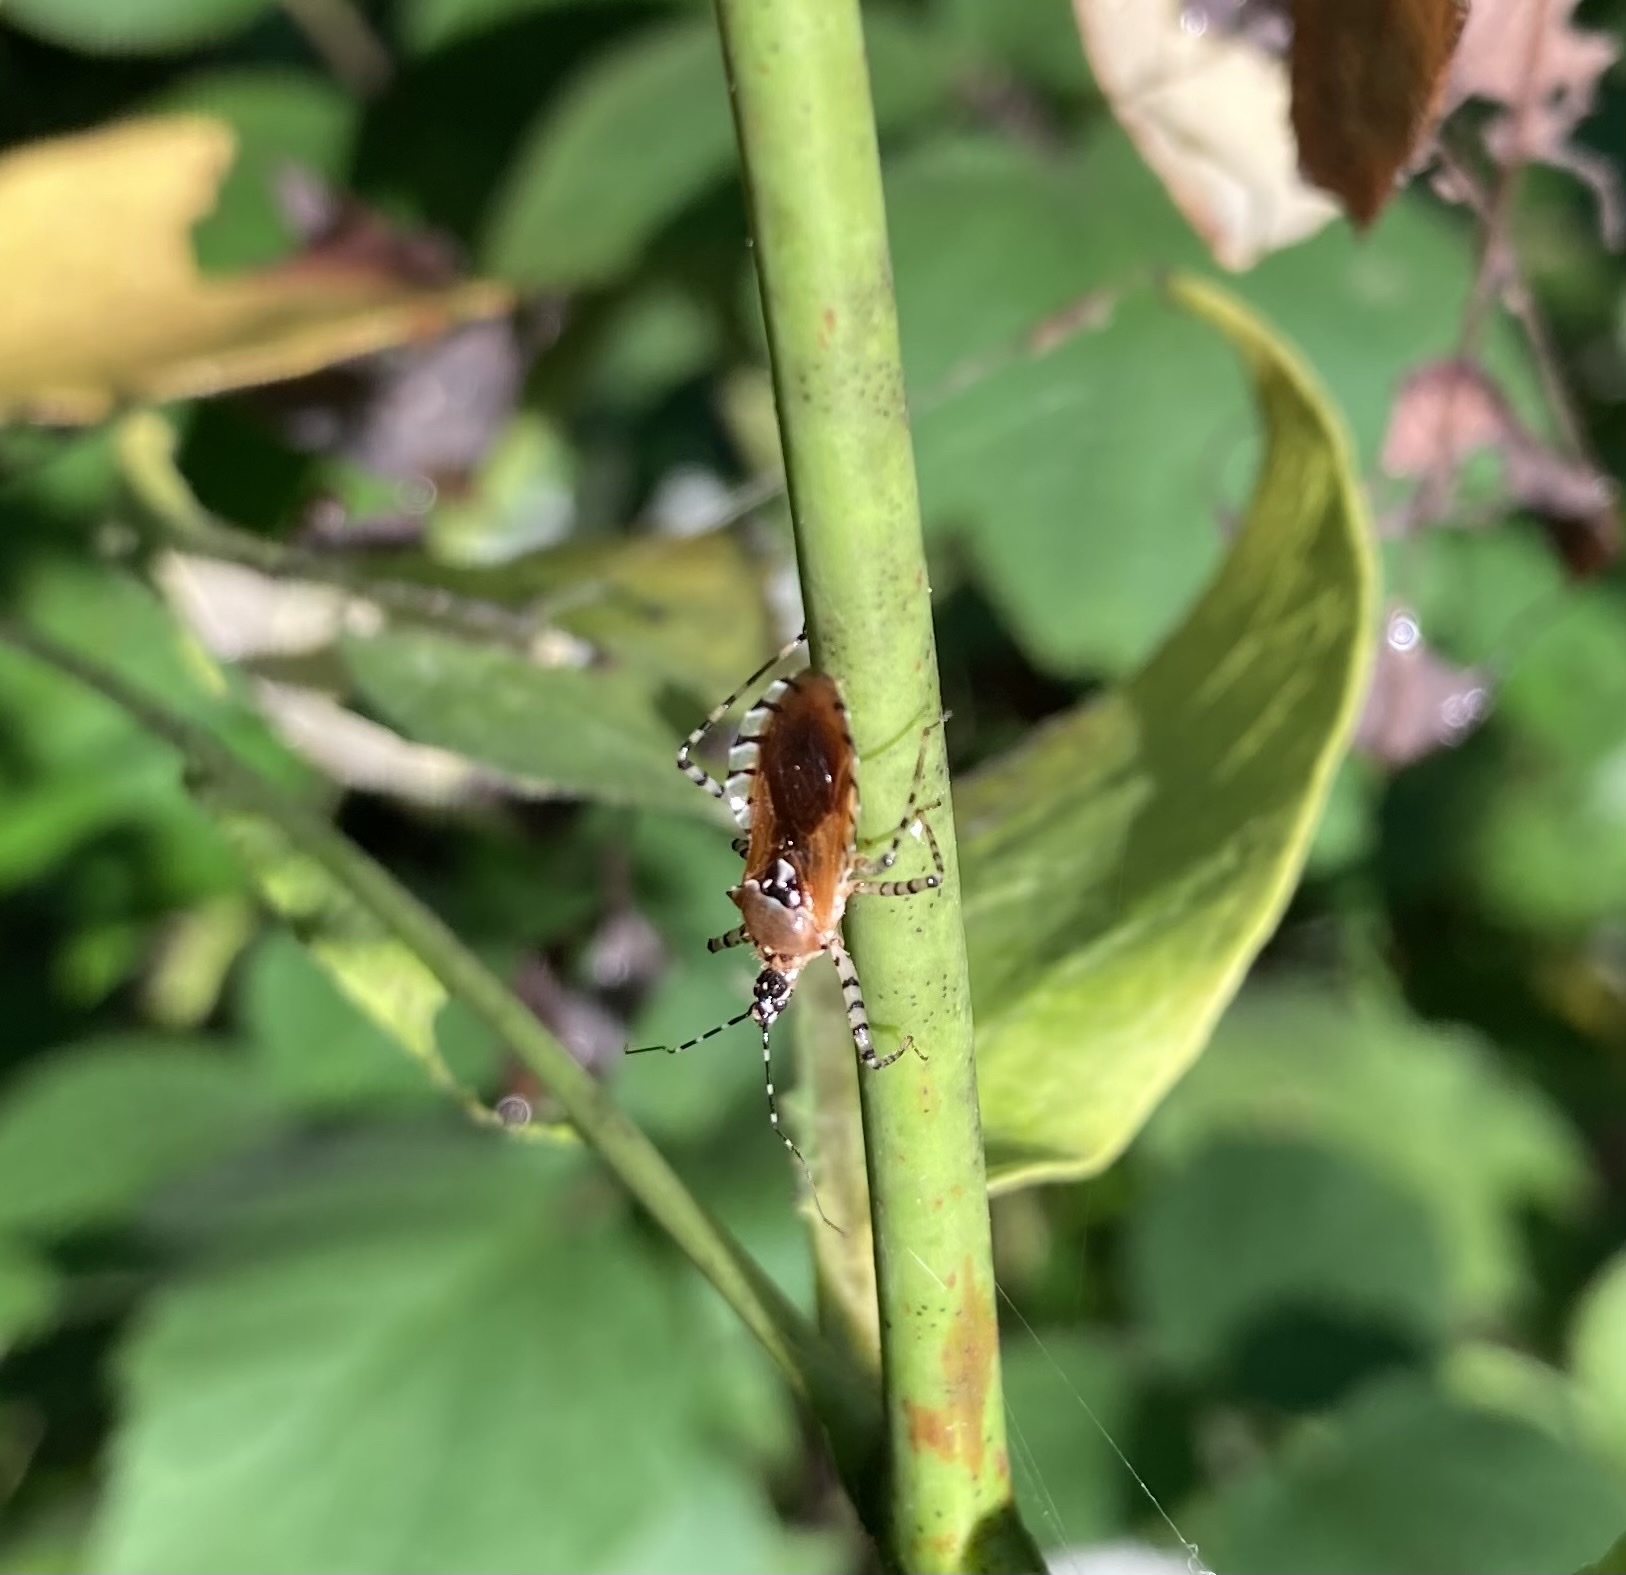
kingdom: Animalia
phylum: Arthropoda
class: Insecta
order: Hemiptera
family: Reduviidae
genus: Pselliopus
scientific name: Pselliopus cinctus
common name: Ringed assassin bug
